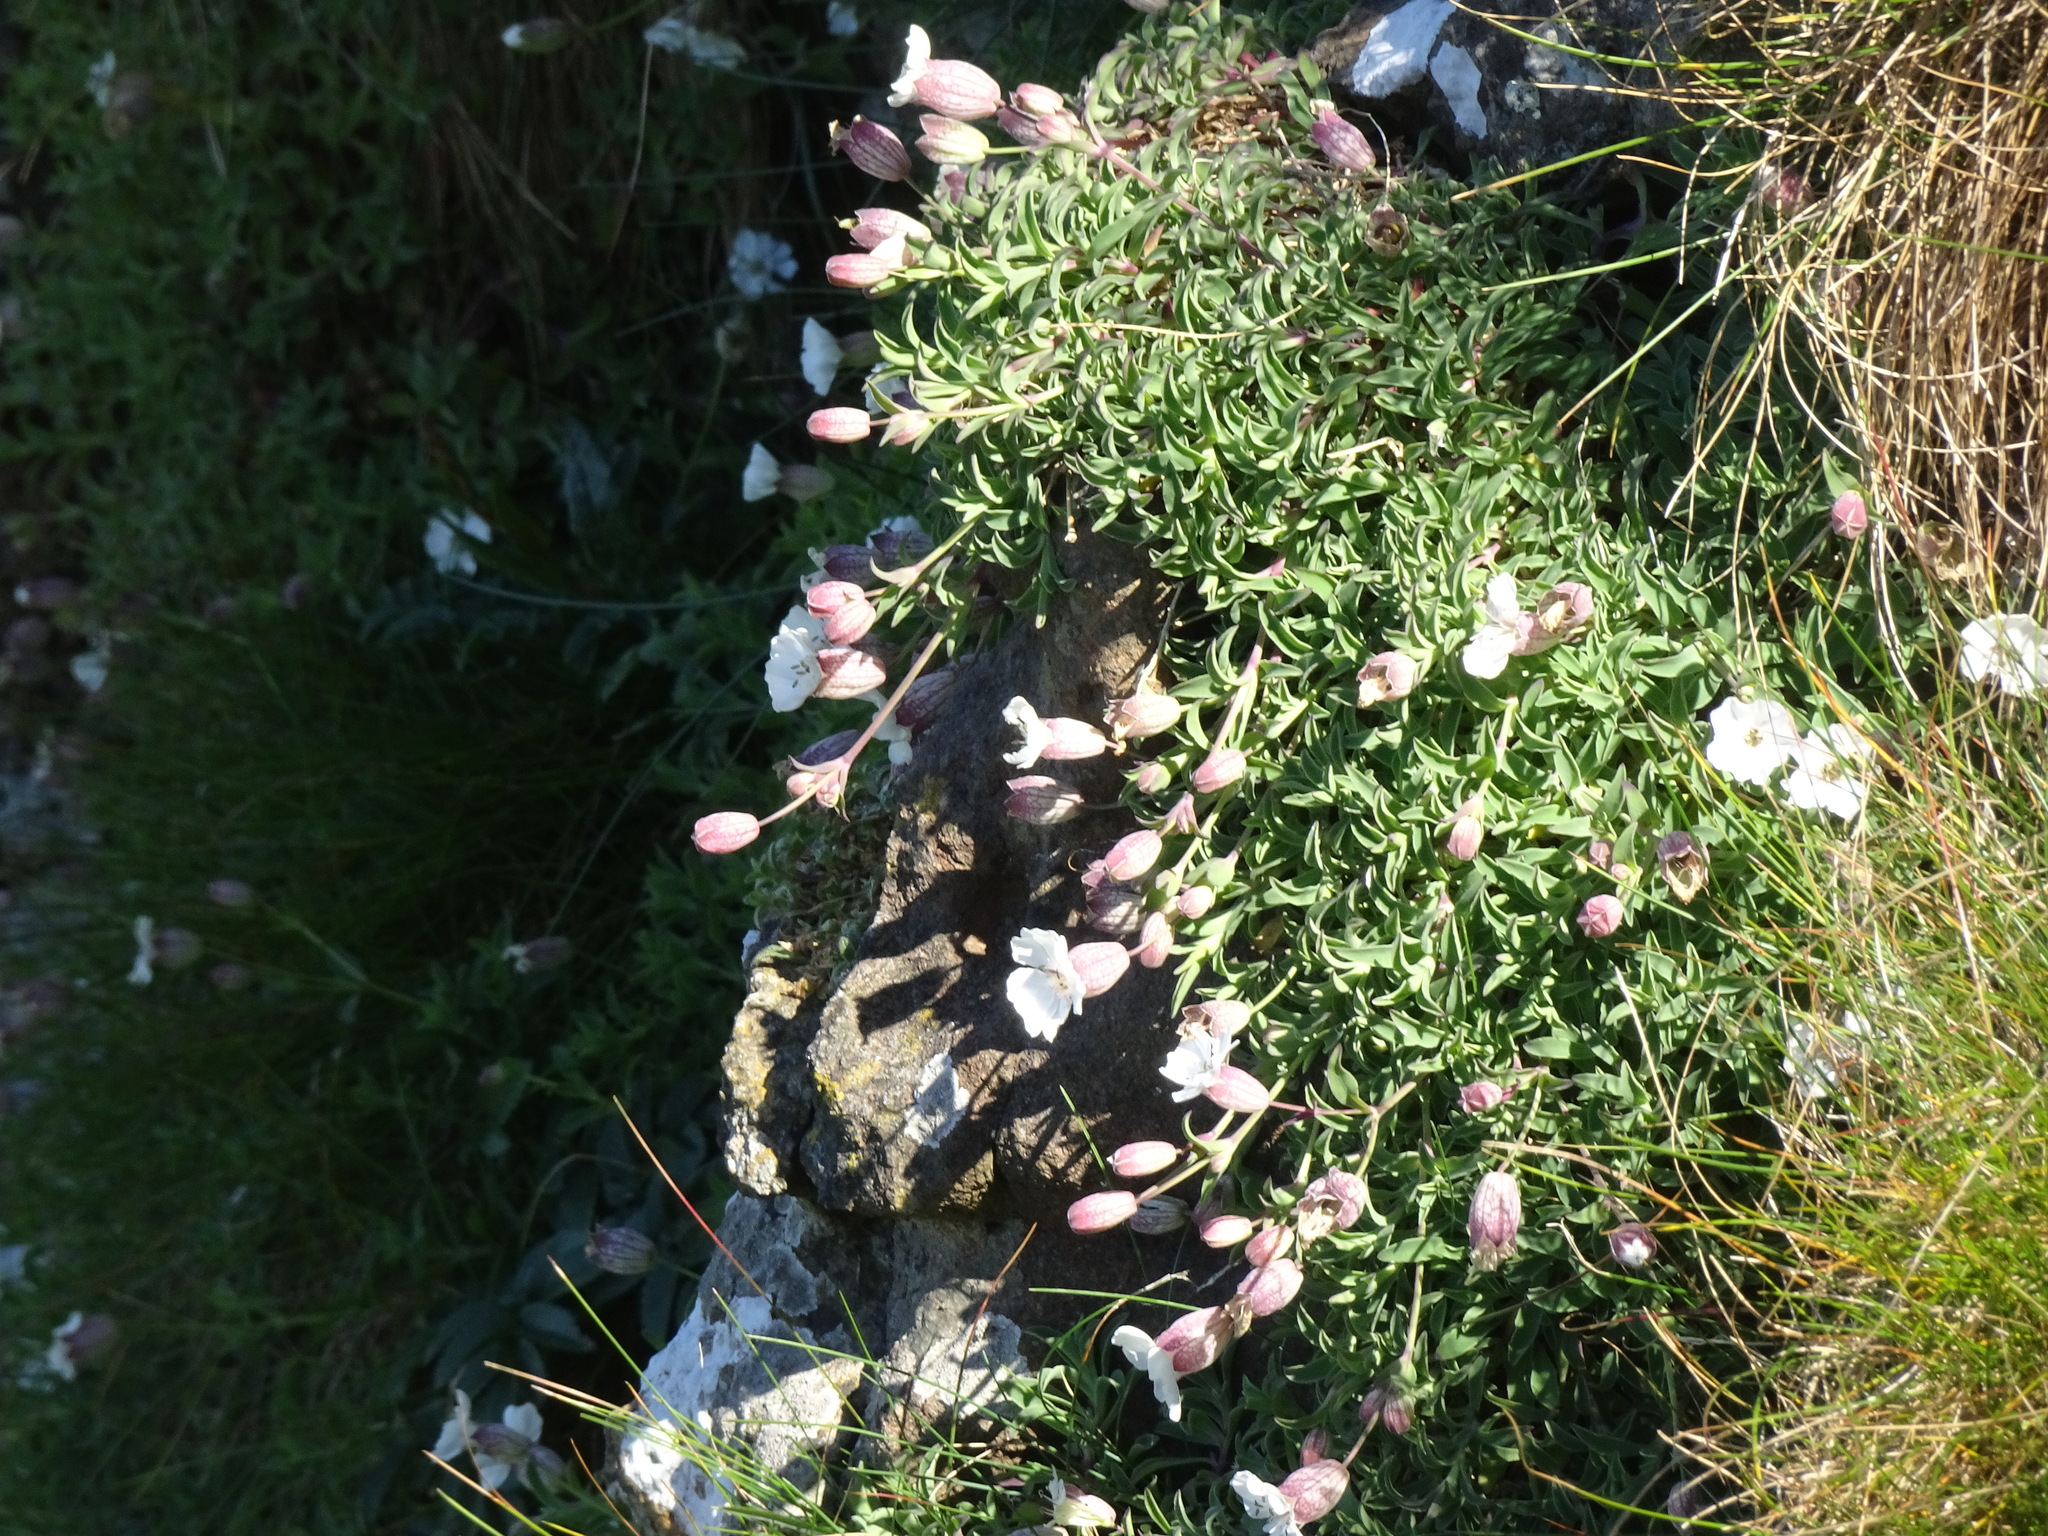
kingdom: Plantae
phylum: Tracheophyta
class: Magnoliopsida
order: Caryophyllales
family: Caryophyllaceae
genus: Silene
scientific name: Silene uniflora
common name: Sea campion
